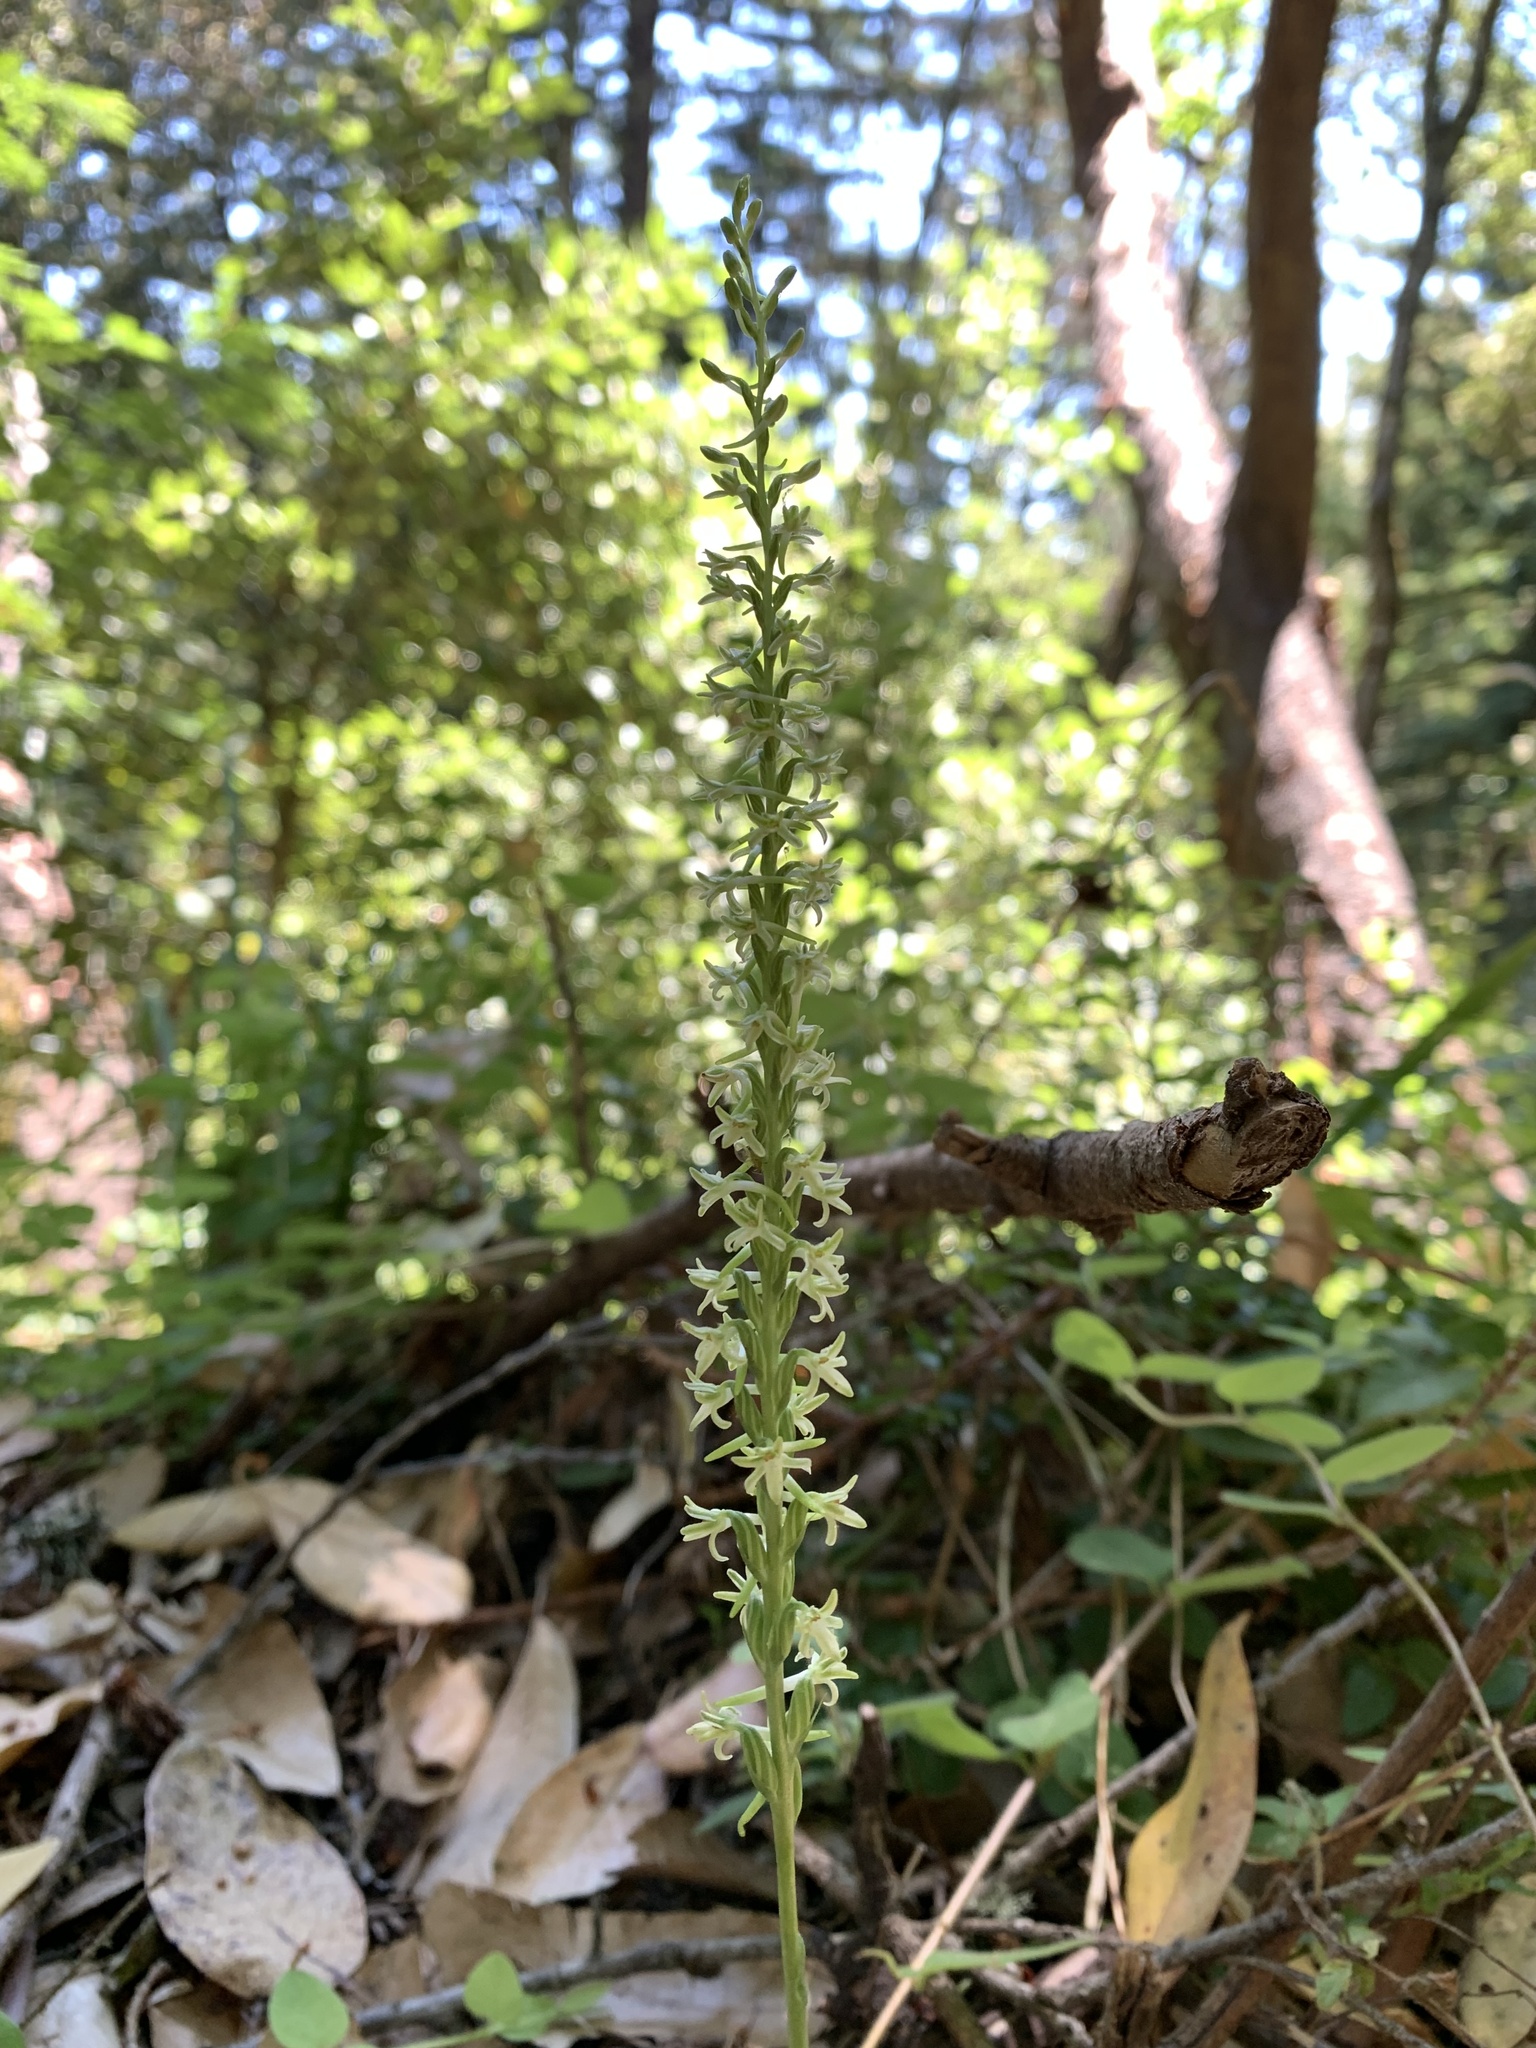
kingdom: Plantae
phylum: Tracheophyta
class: Liliopsida
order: Asparagales
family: Orchidaceae
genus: Platanthera
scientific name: Platanthera transversa
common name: Royal rein orchid
